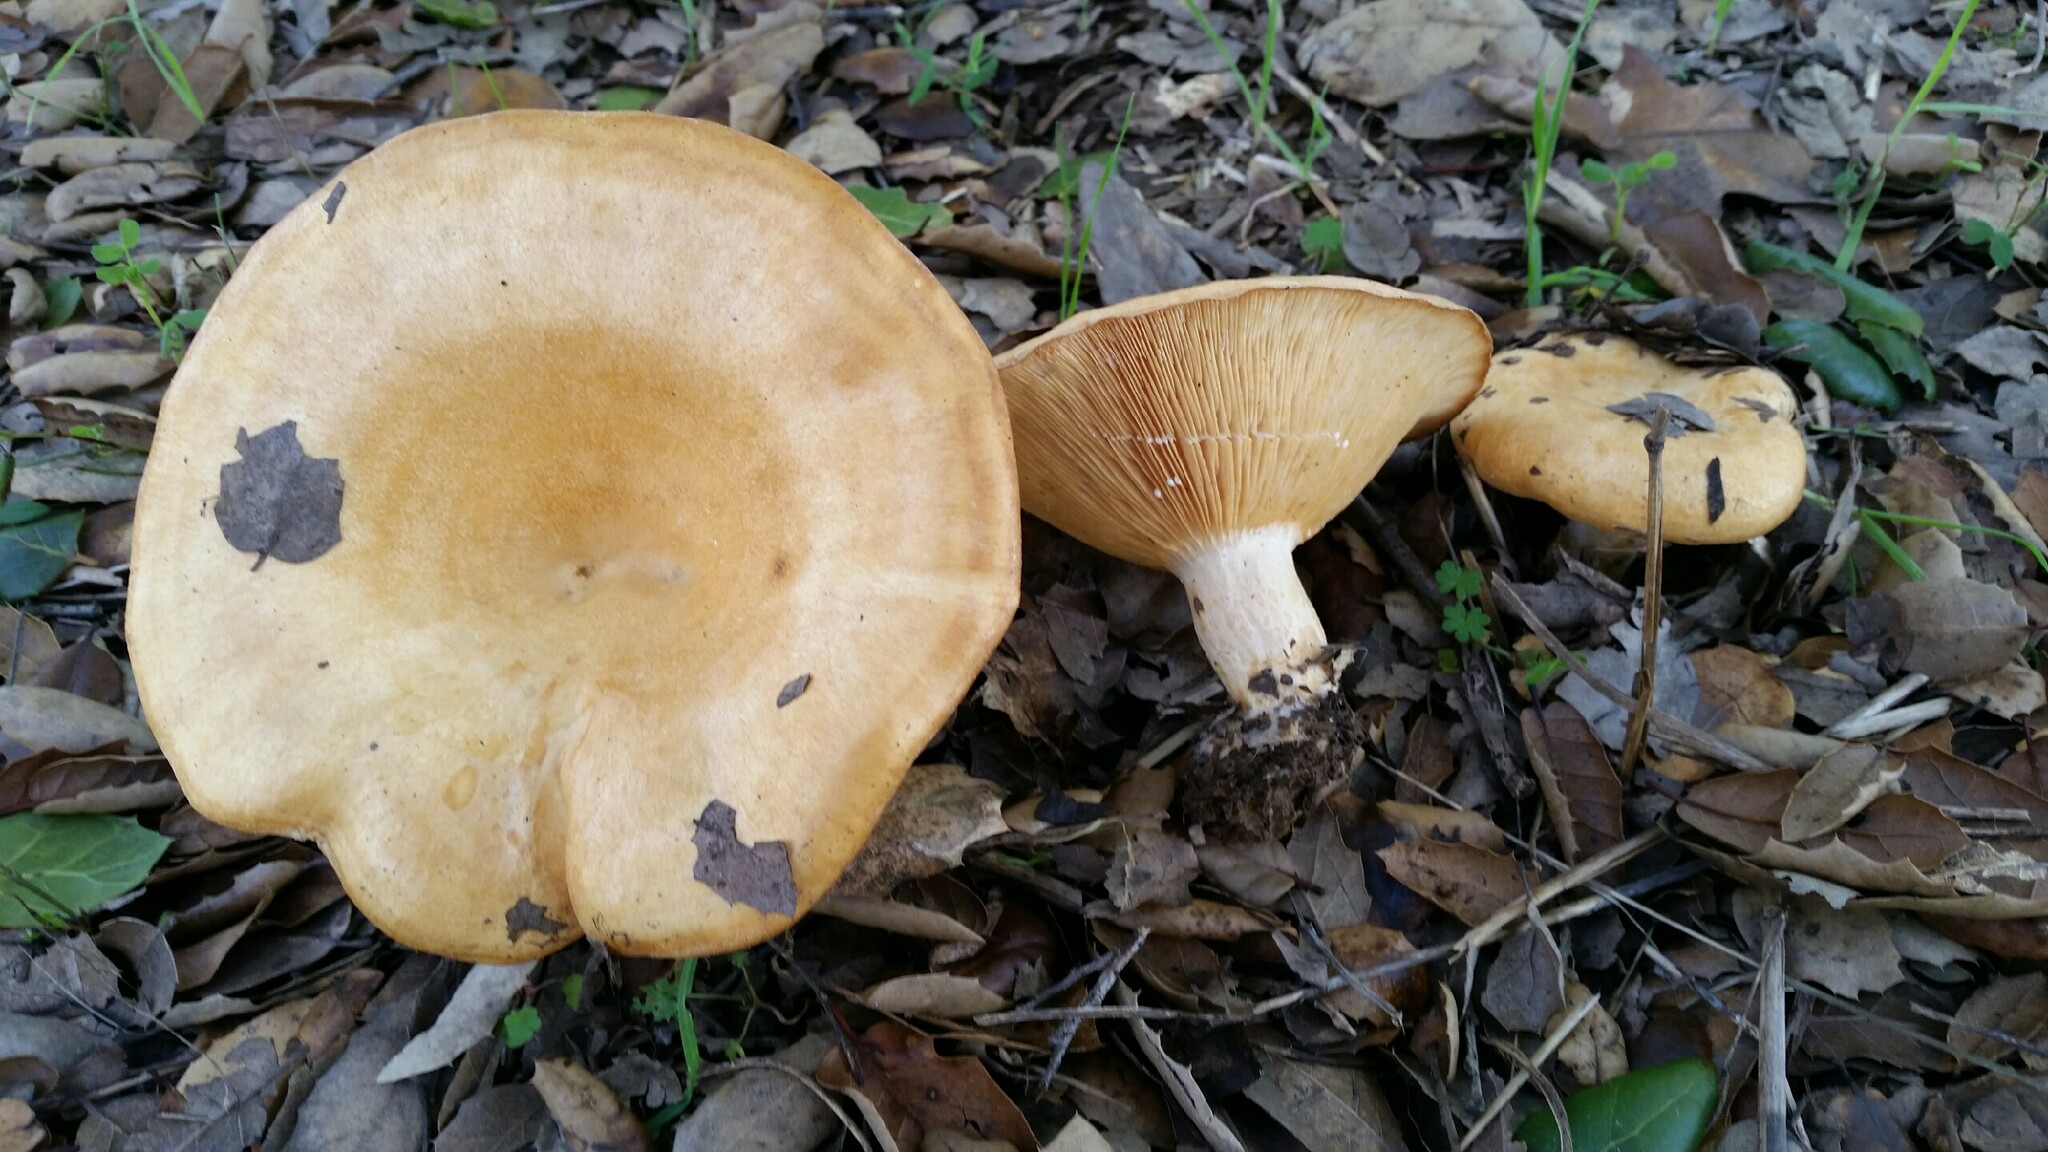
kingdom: Fungi
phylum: Basidiomycota
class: Agaricomycetes
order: Russulales
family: Russulaceae
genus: Lactarius
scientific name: Lactarius alnicola
